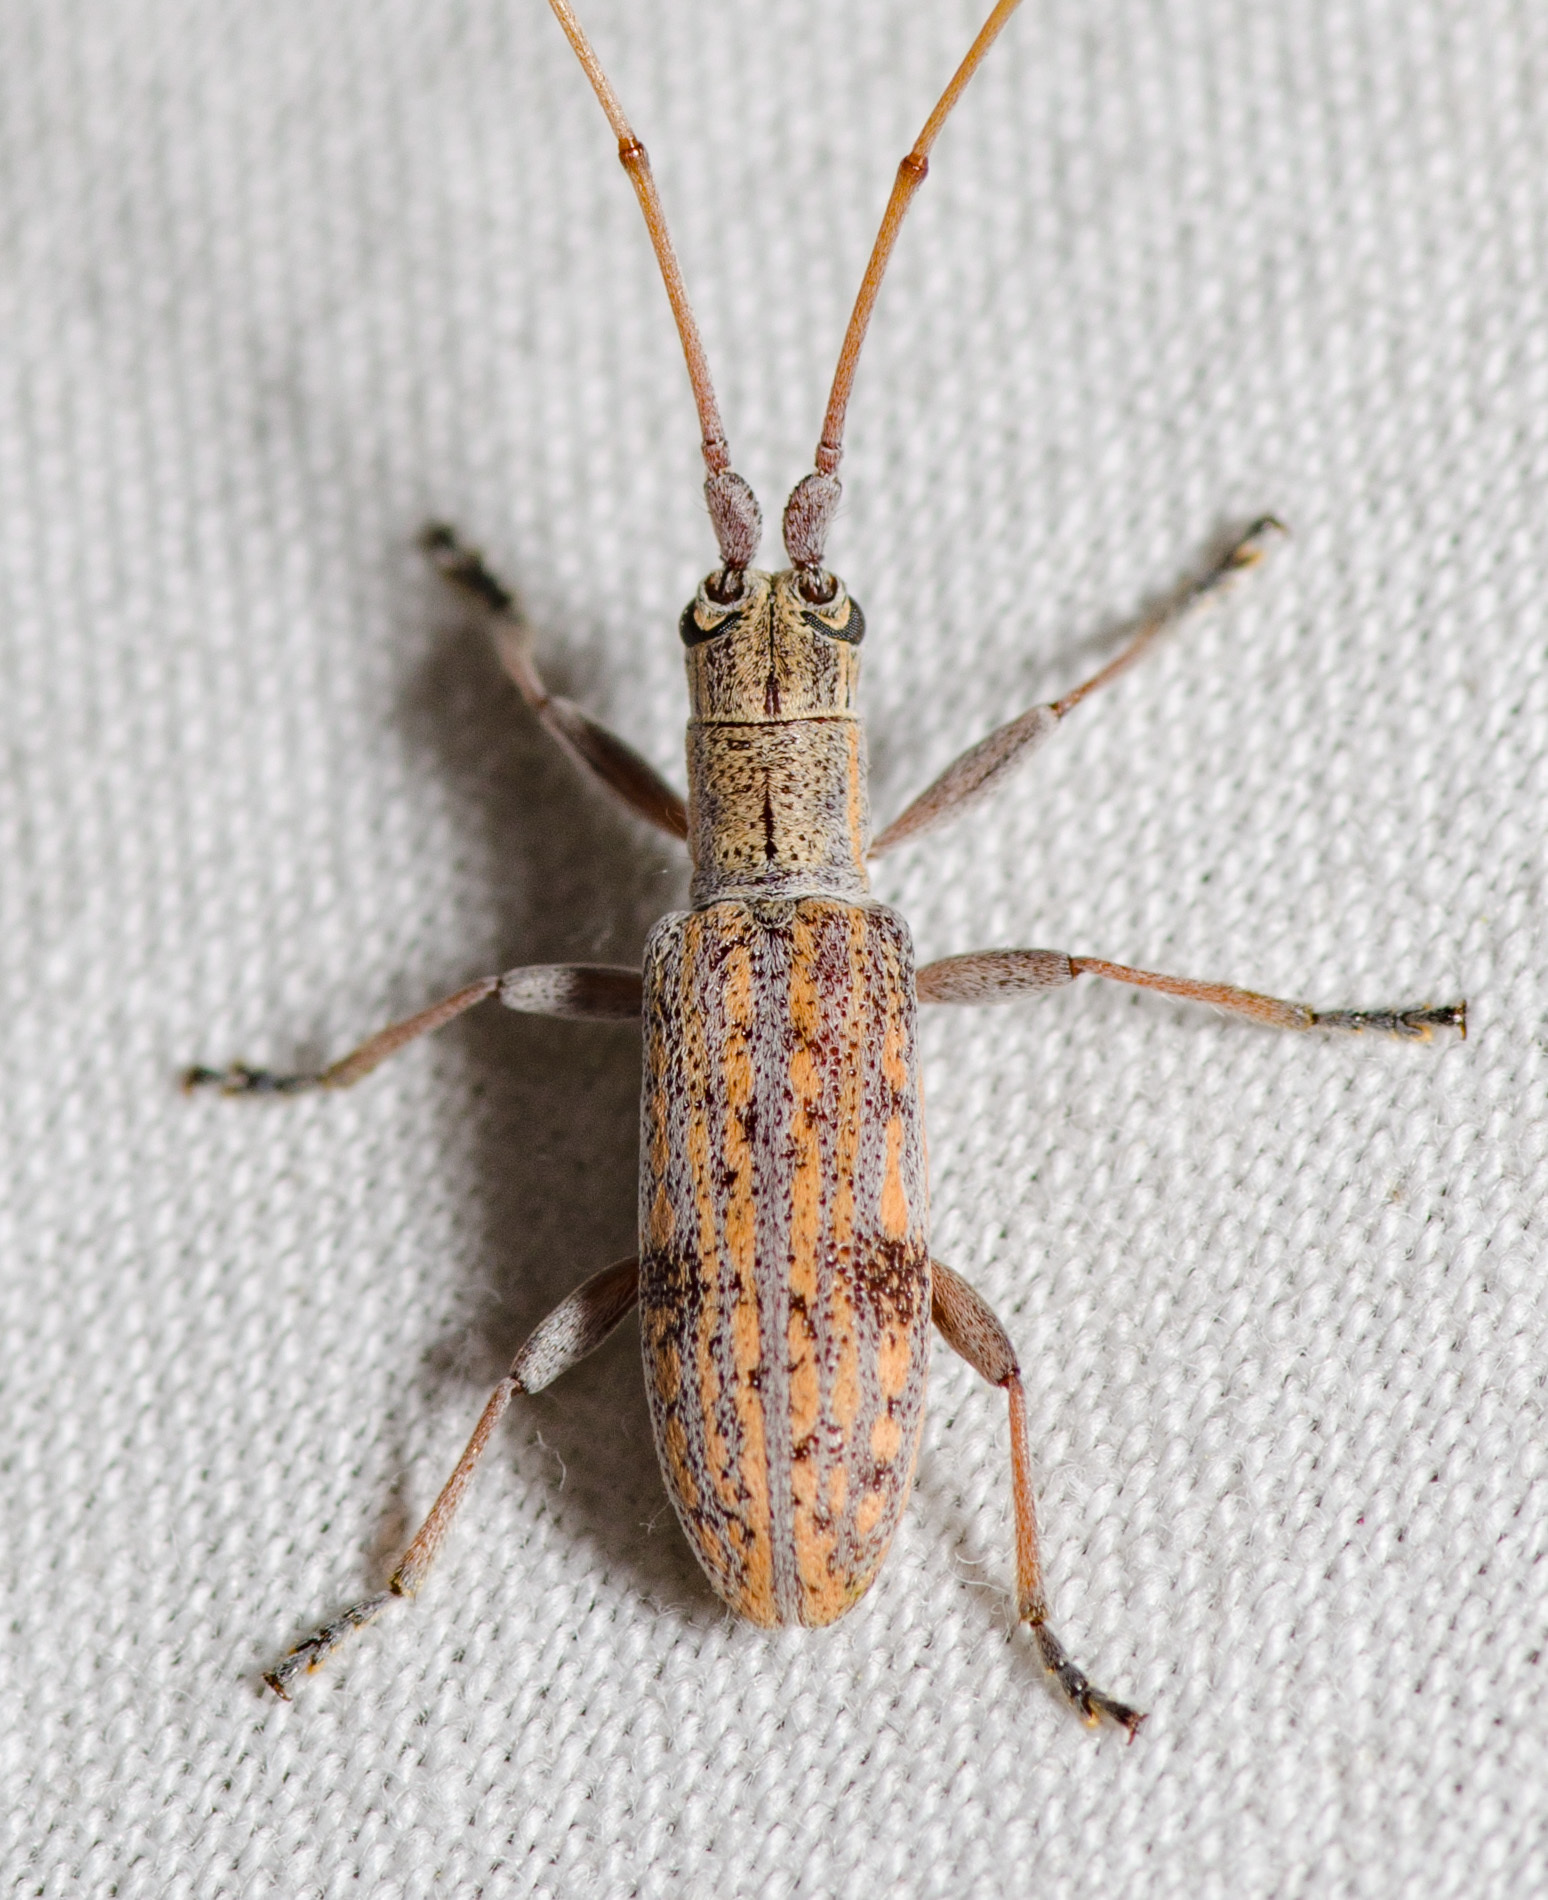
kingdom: Animalia
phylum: Arthropoda
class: Insecta
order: Coleoptera
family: Cerambycidae
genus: Dorcaschema
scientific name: Dorcaschema alternatum
